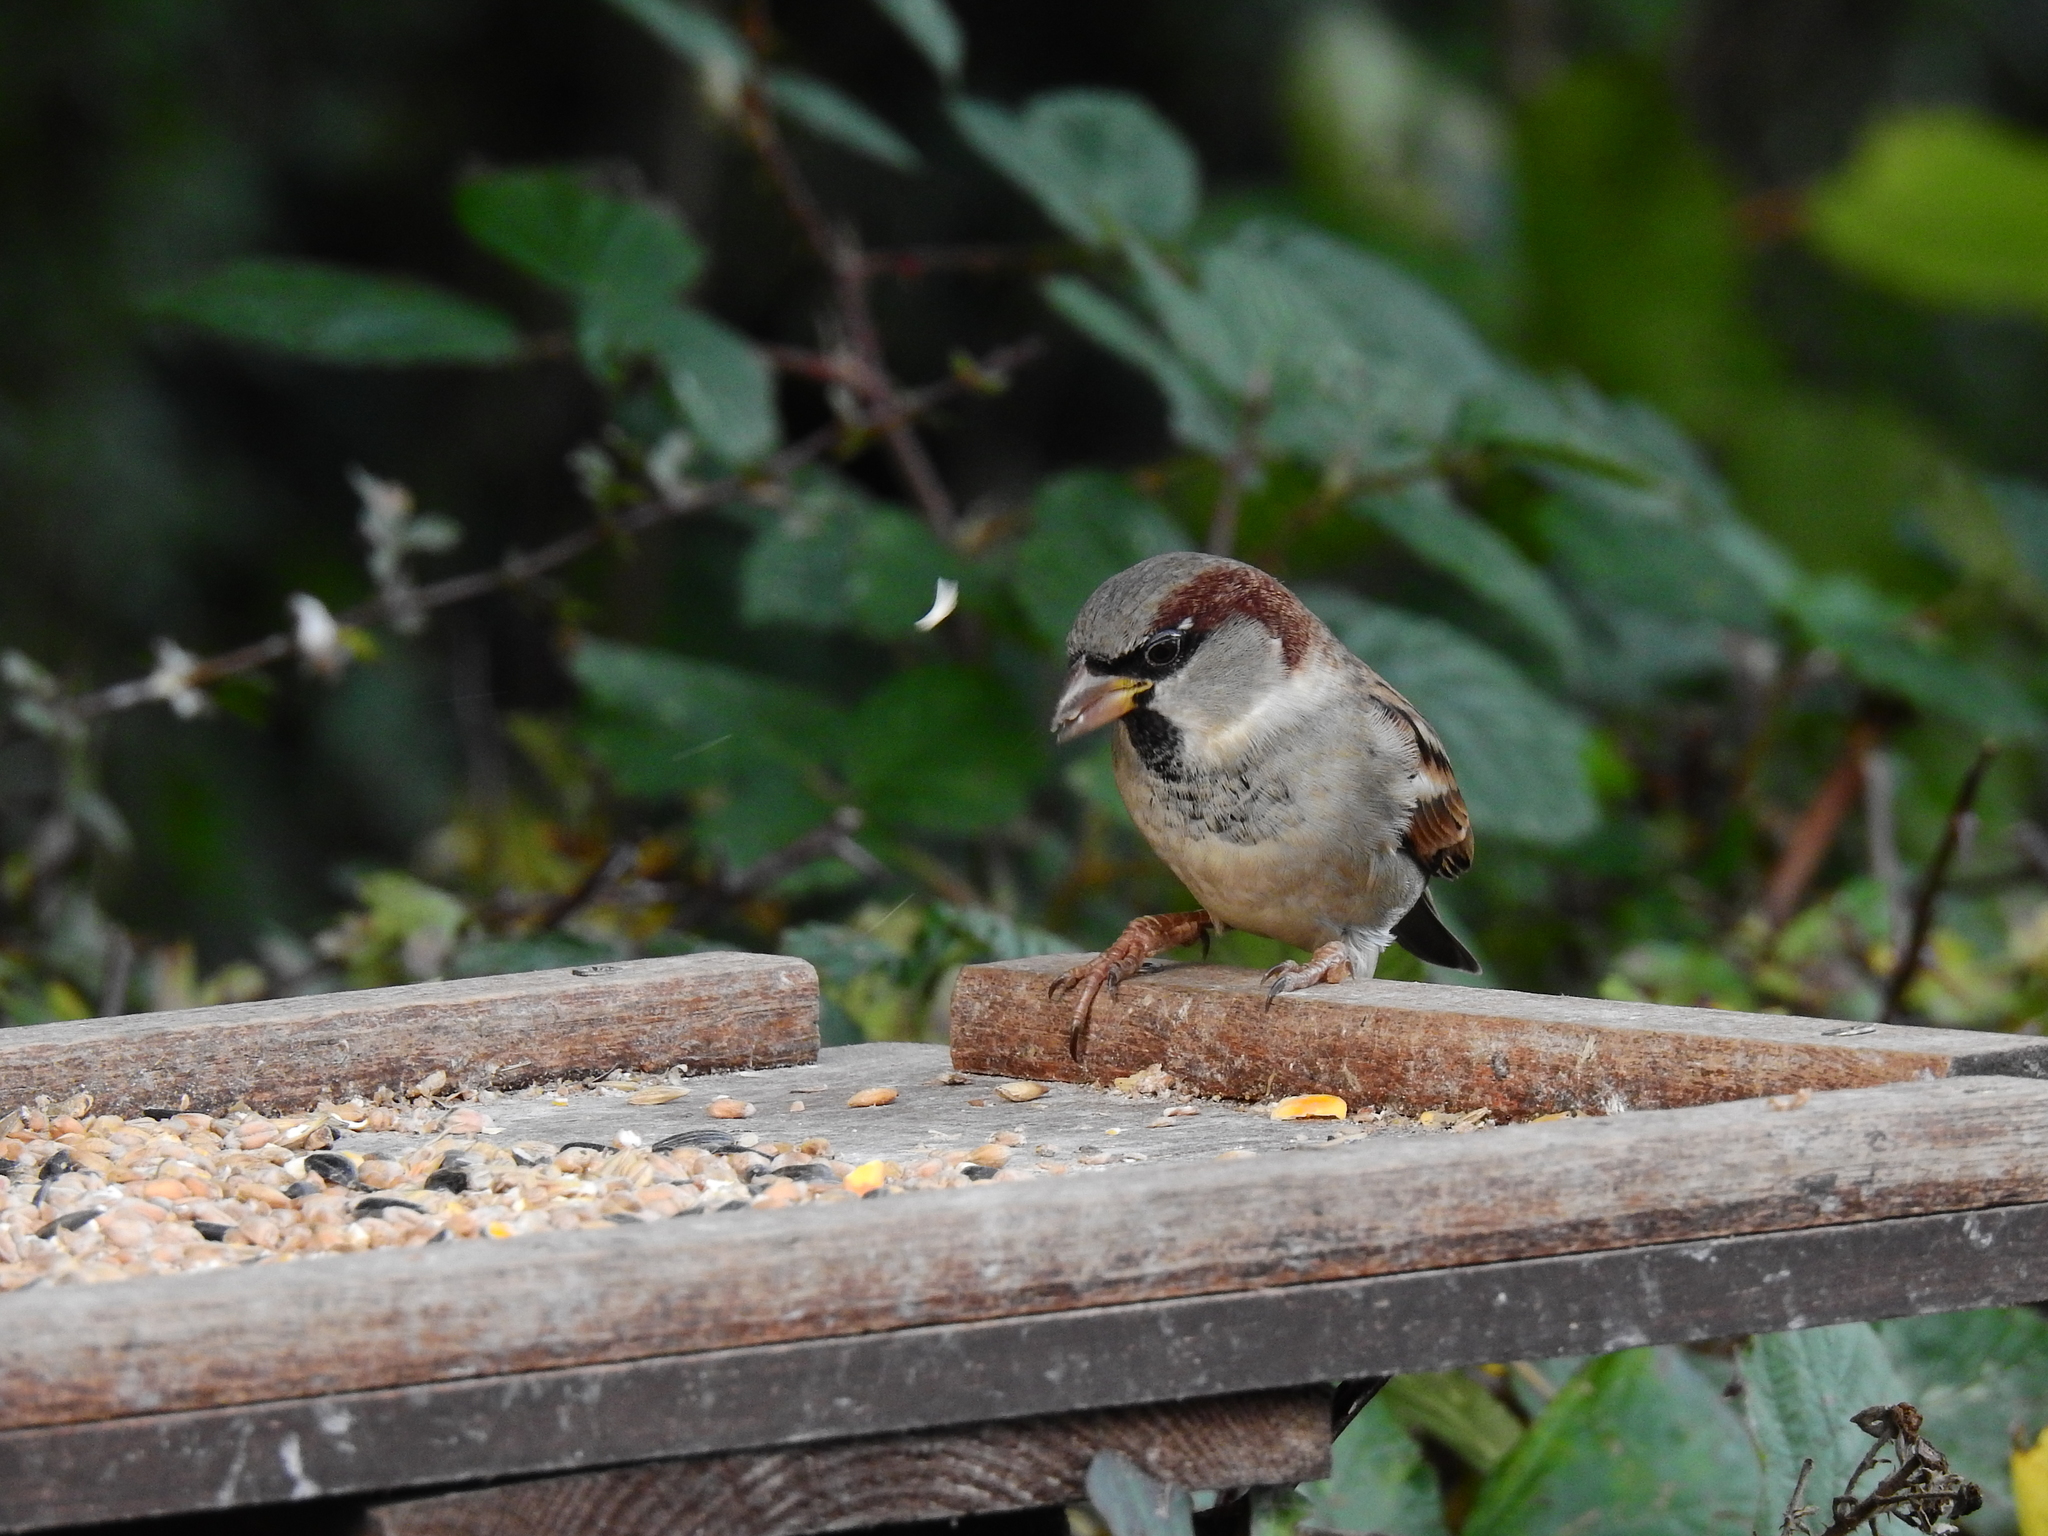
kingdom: Animalia
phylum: Chordata
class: Aves
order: Passeriformes
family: Passeridae
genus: Passer
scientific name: Passer domesticus
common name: House sparrow
